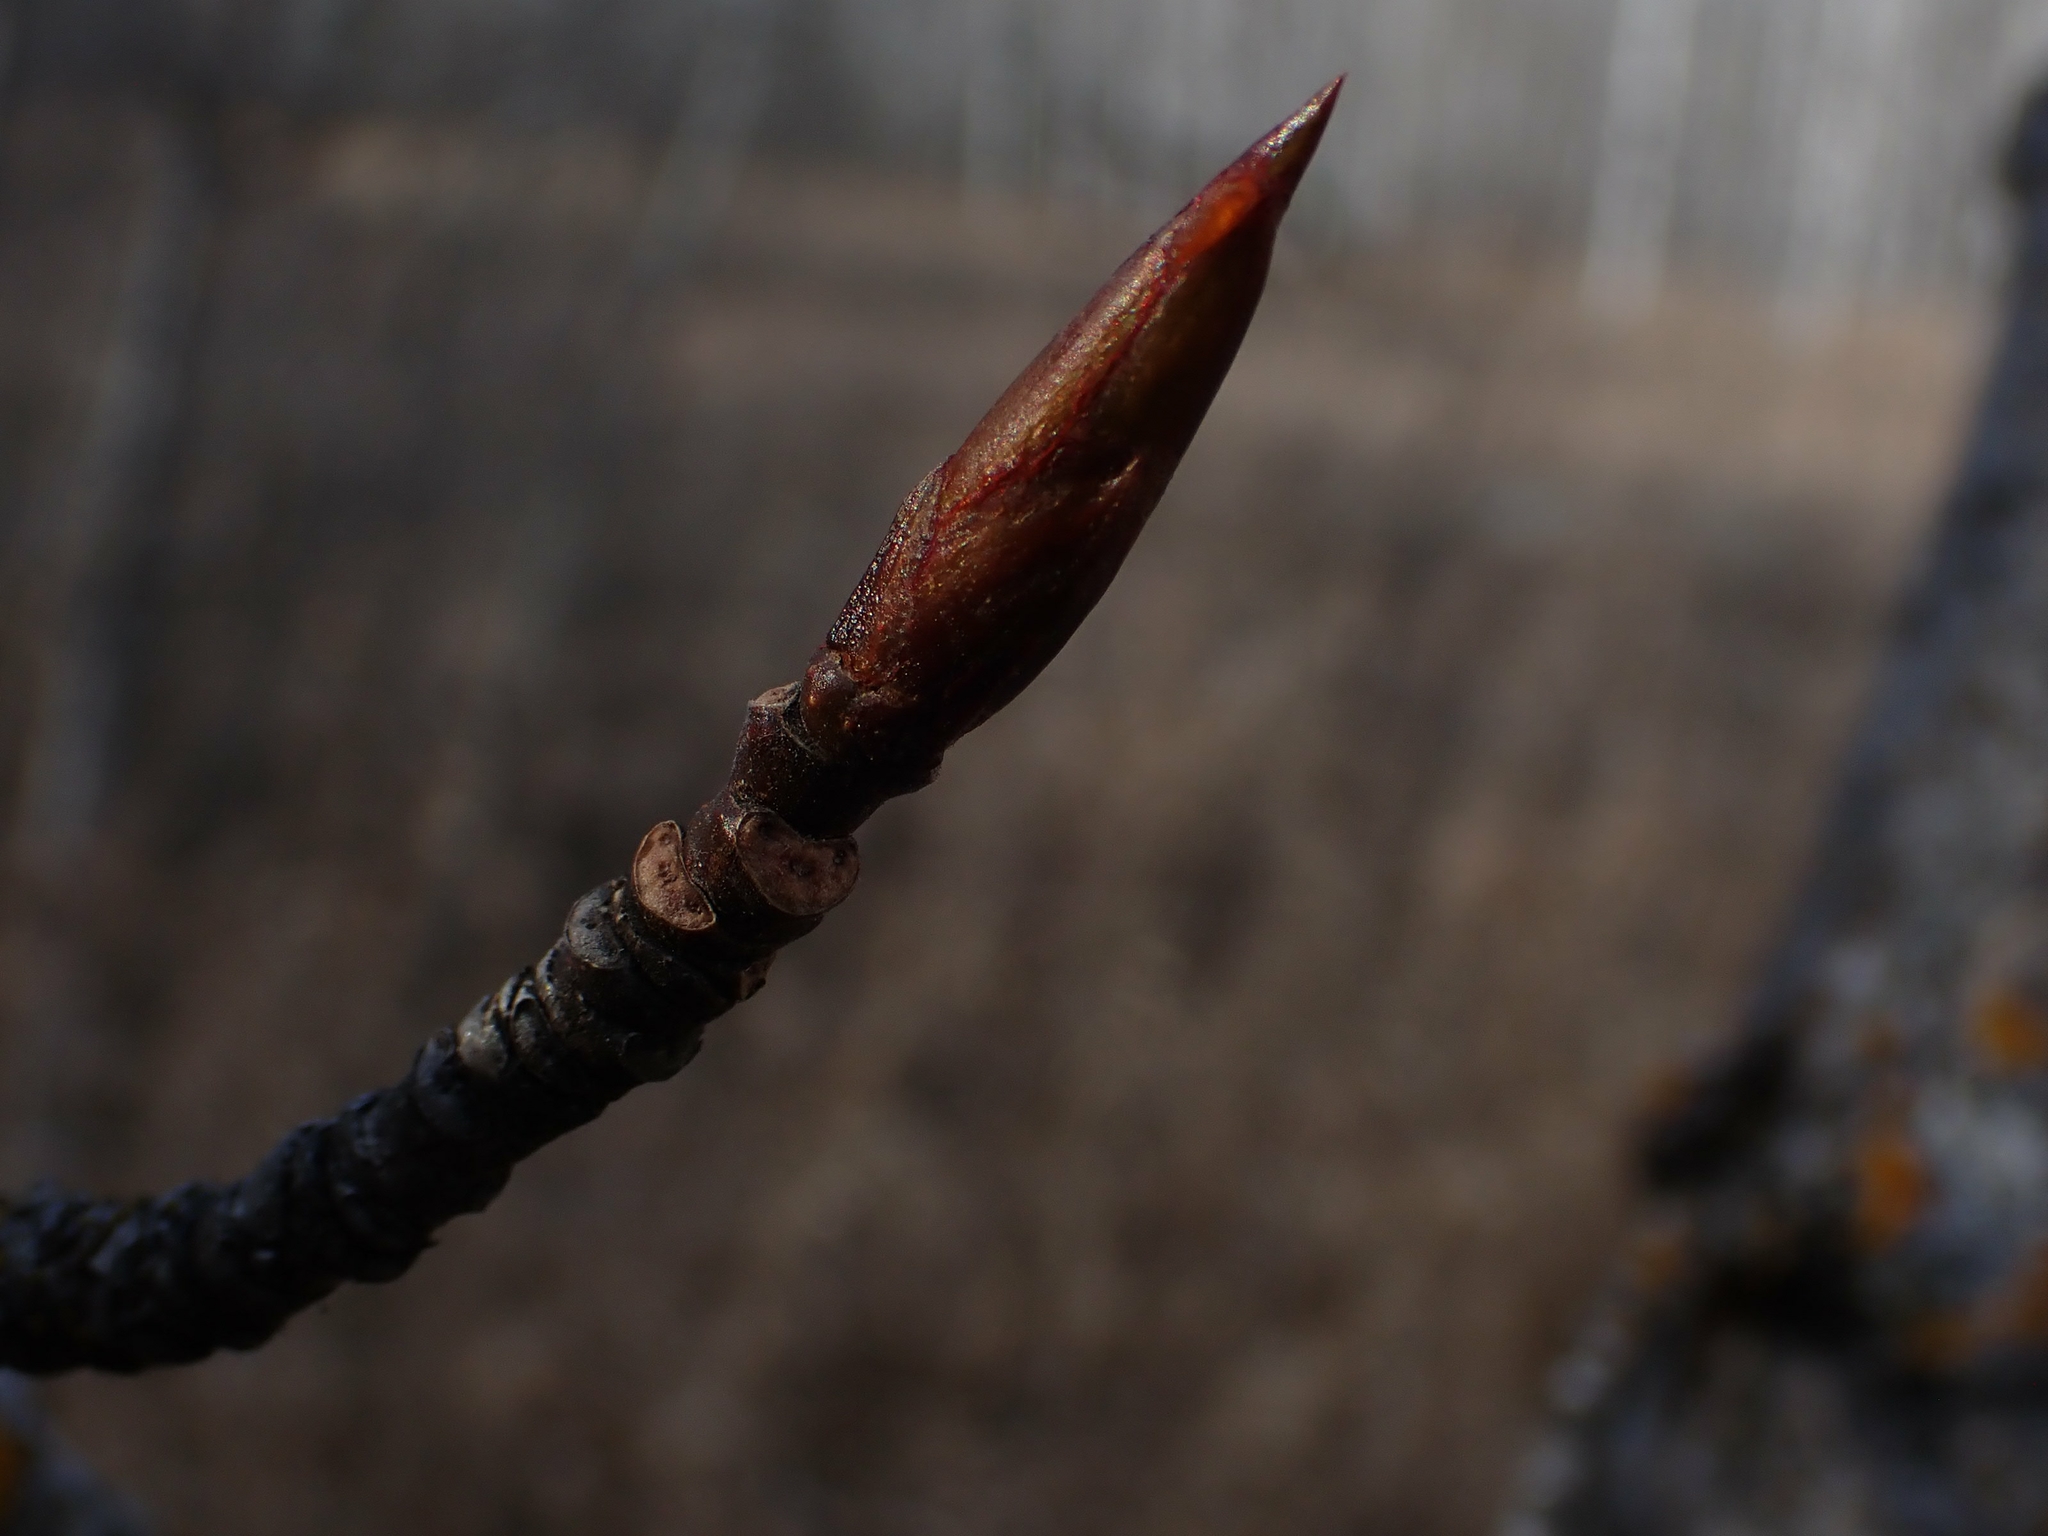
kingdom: Plantae
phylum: Tracheophyta
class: Magnoliopsida
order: Malpighiales
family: Salicaceae
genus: Populus
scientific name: Populus balsamifera
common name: Balsam poplar
